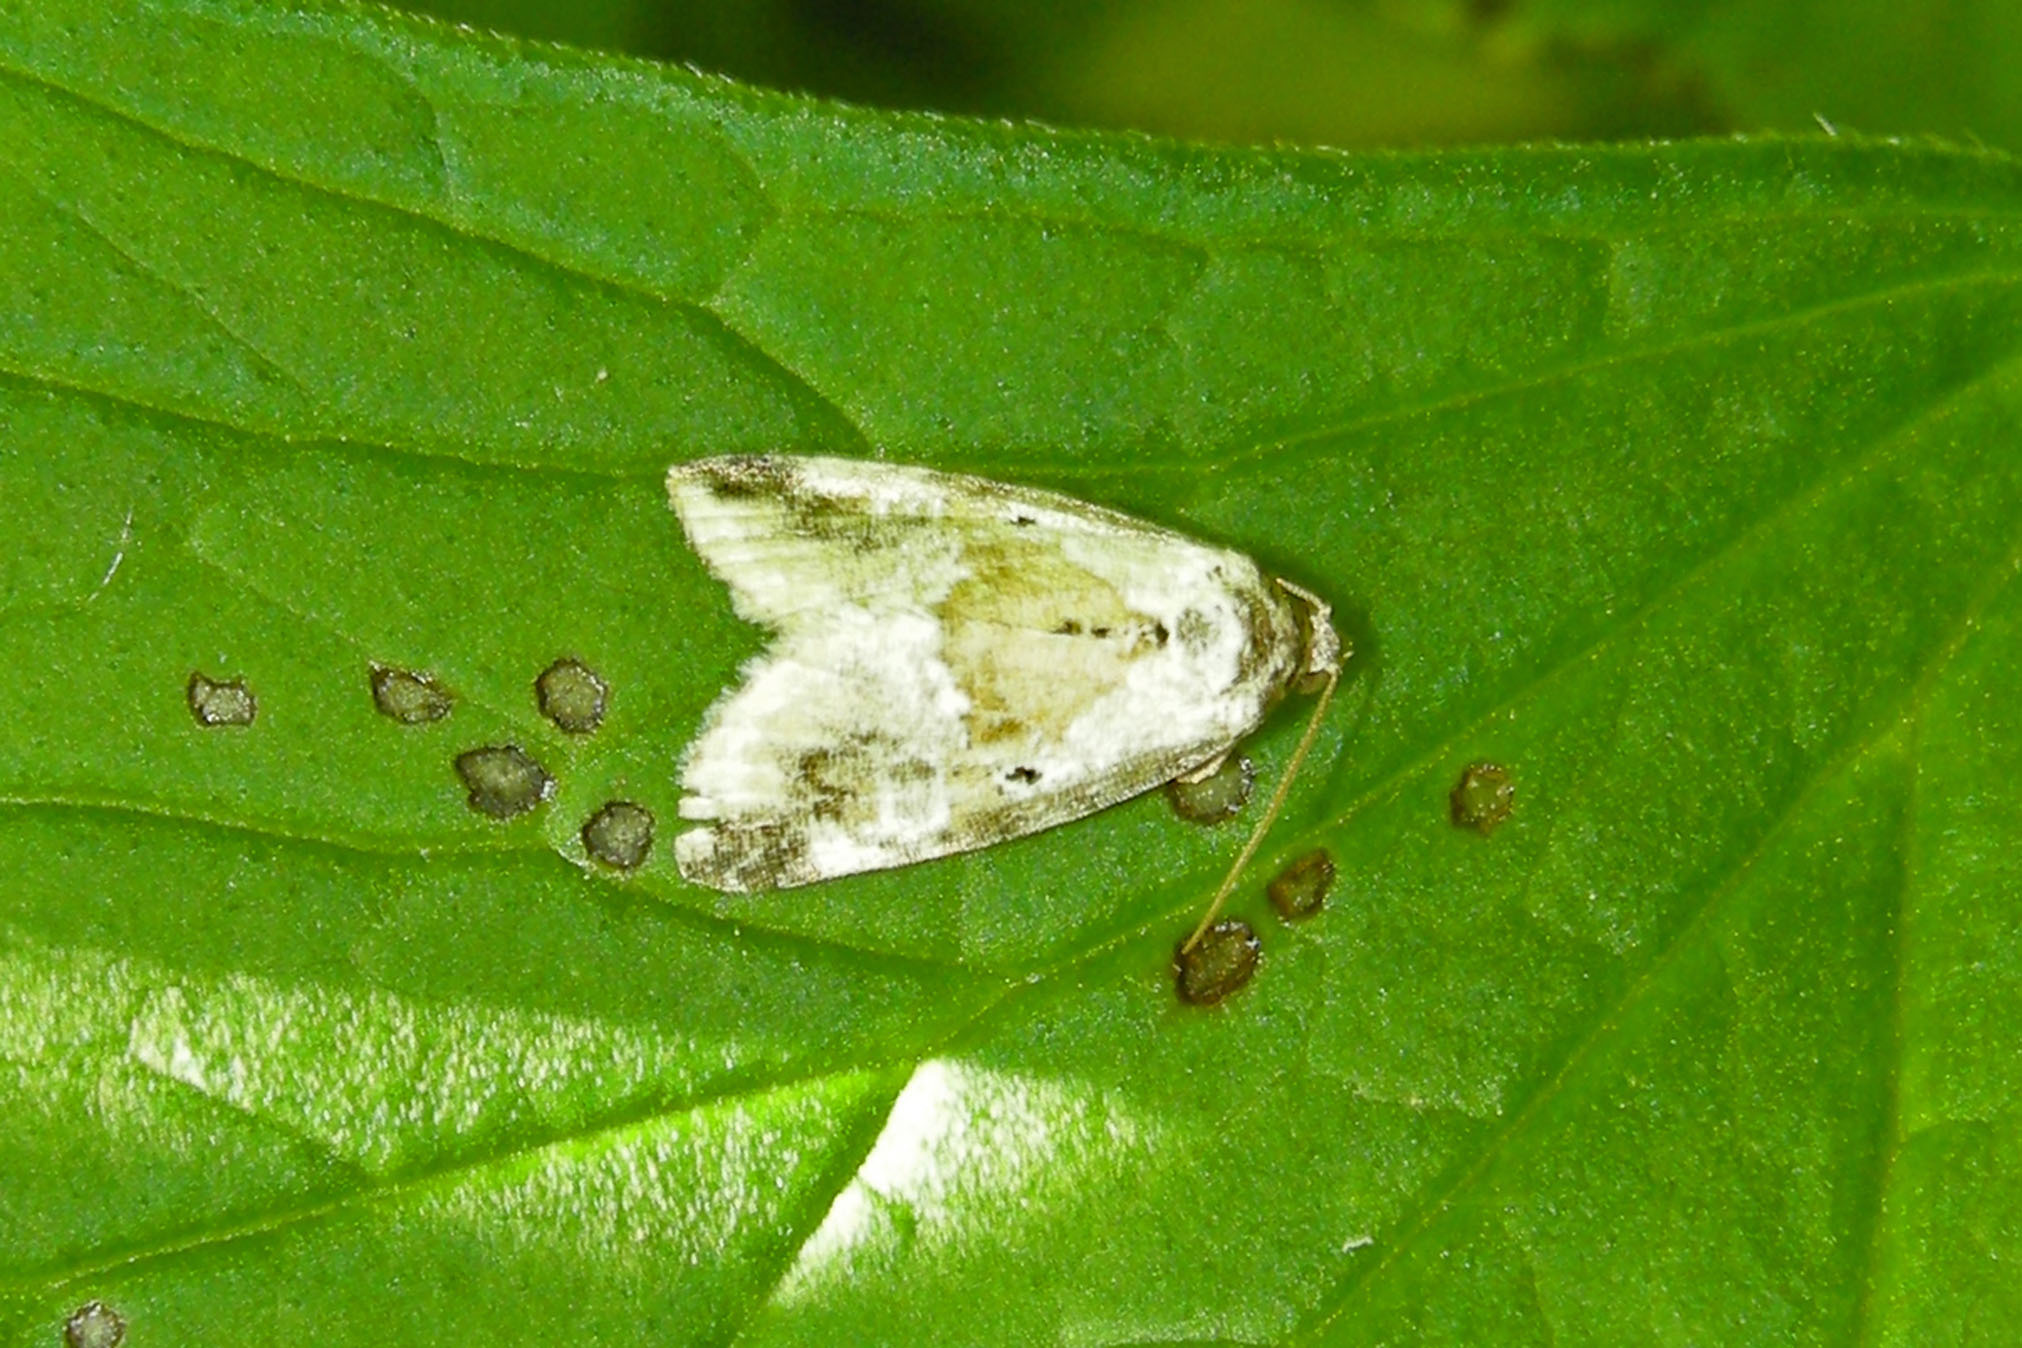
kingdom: Animalia
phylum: Arthropoda
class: Insecta
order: Lepidoptera
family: Noctuidae
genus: Maliattha
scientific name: Maliattha synochitis
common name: Black-dotted glyph
